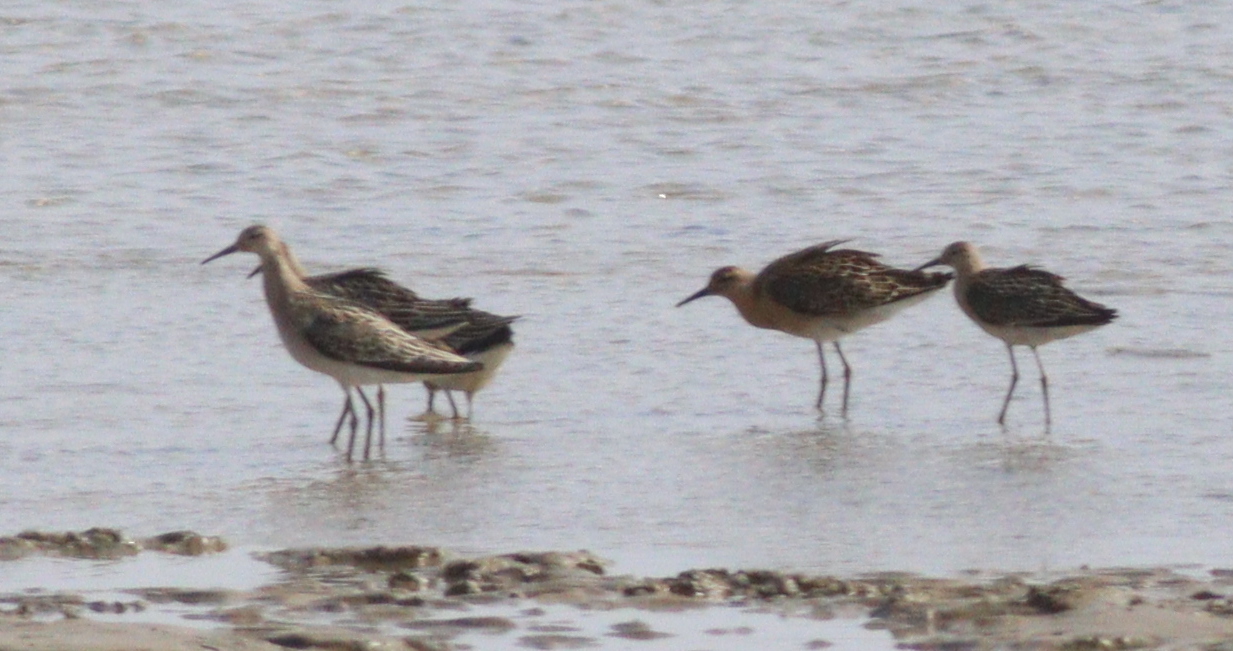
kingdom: Animalia
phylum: Chordata
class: Aves
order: Charadriiformes
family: Scolopacidae
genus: Calidris
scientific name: Calidris pugnax
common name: Ruff
